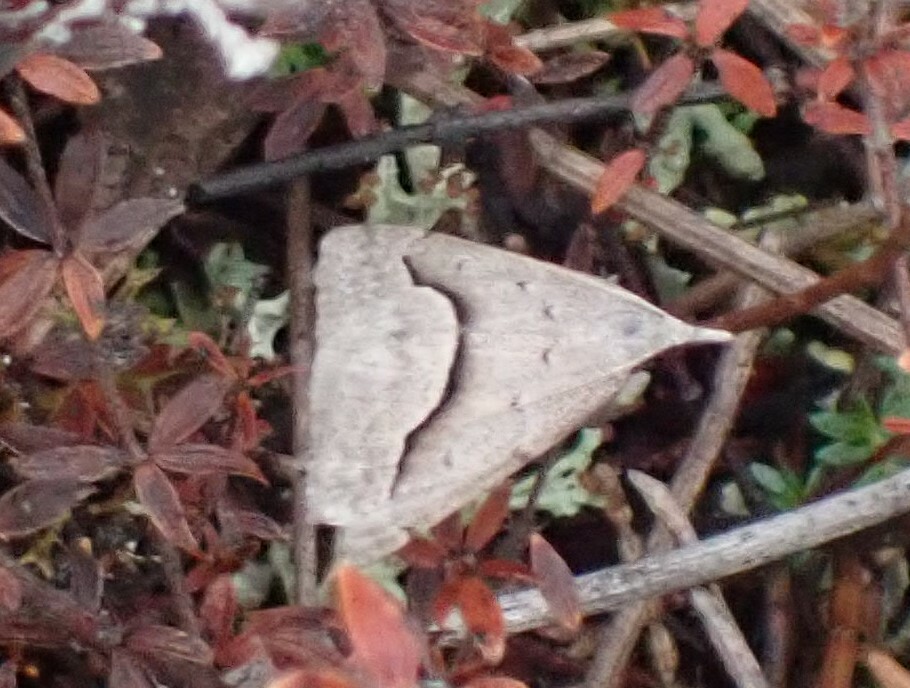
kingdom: Animalia
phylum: Arthropoda
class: Insecta
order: Lepidoptera
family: Geometridae
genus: Dichromodes
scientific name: Dichromodes euscia
